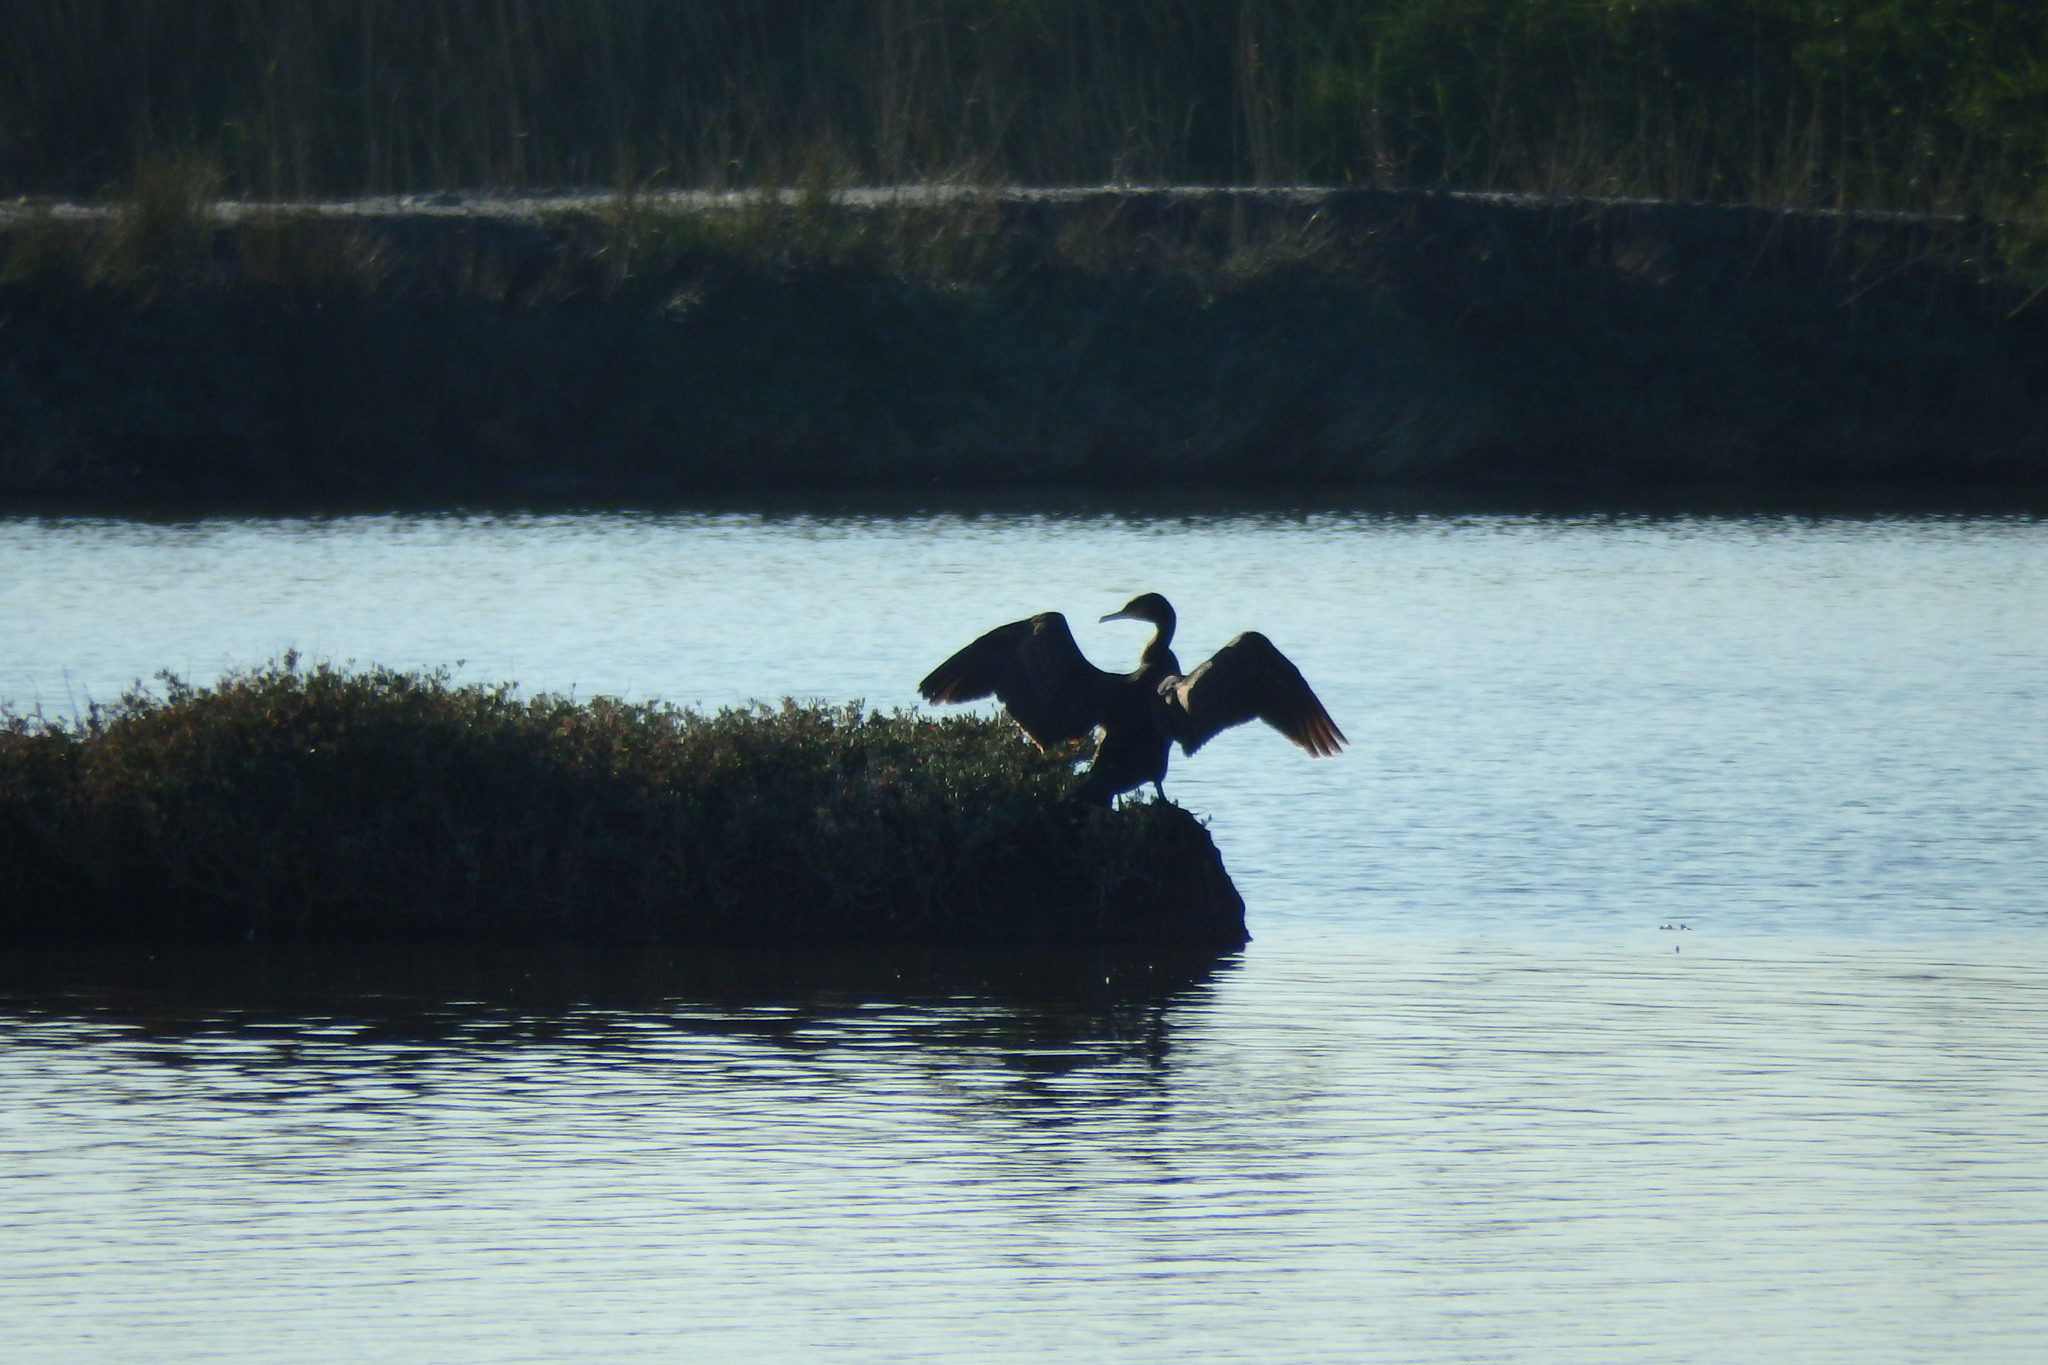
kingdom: Animalia
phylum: Chordata
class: Aves
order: Suliformes
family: Phalacrocoracidae
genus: Phalacrocorax
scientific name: Phalacrocorax carbo
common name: Great cormorant
